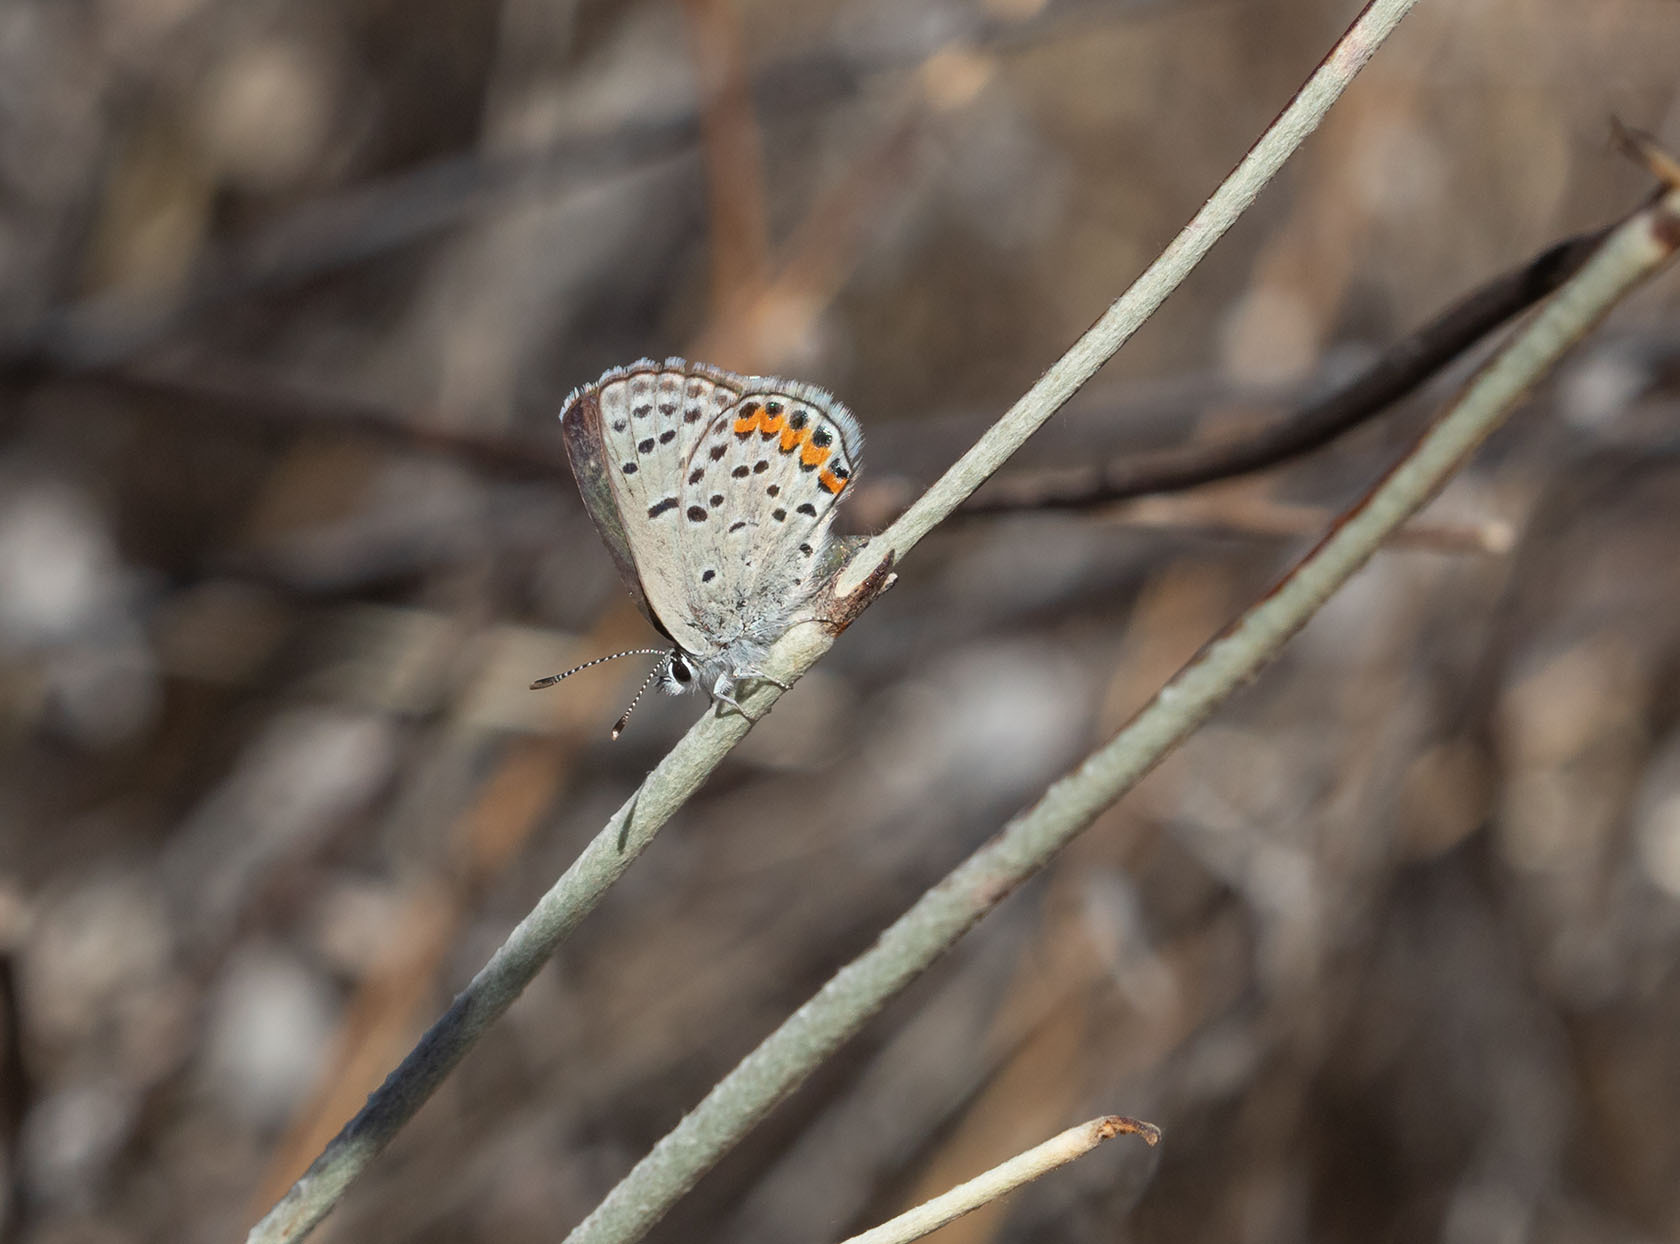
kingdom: Animalia
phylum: Arthropoda
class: Insecta
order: Lepidoptera
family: Lycaenidae
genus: Icaricia
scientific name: Icaricia acmon
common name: Acmon blue
